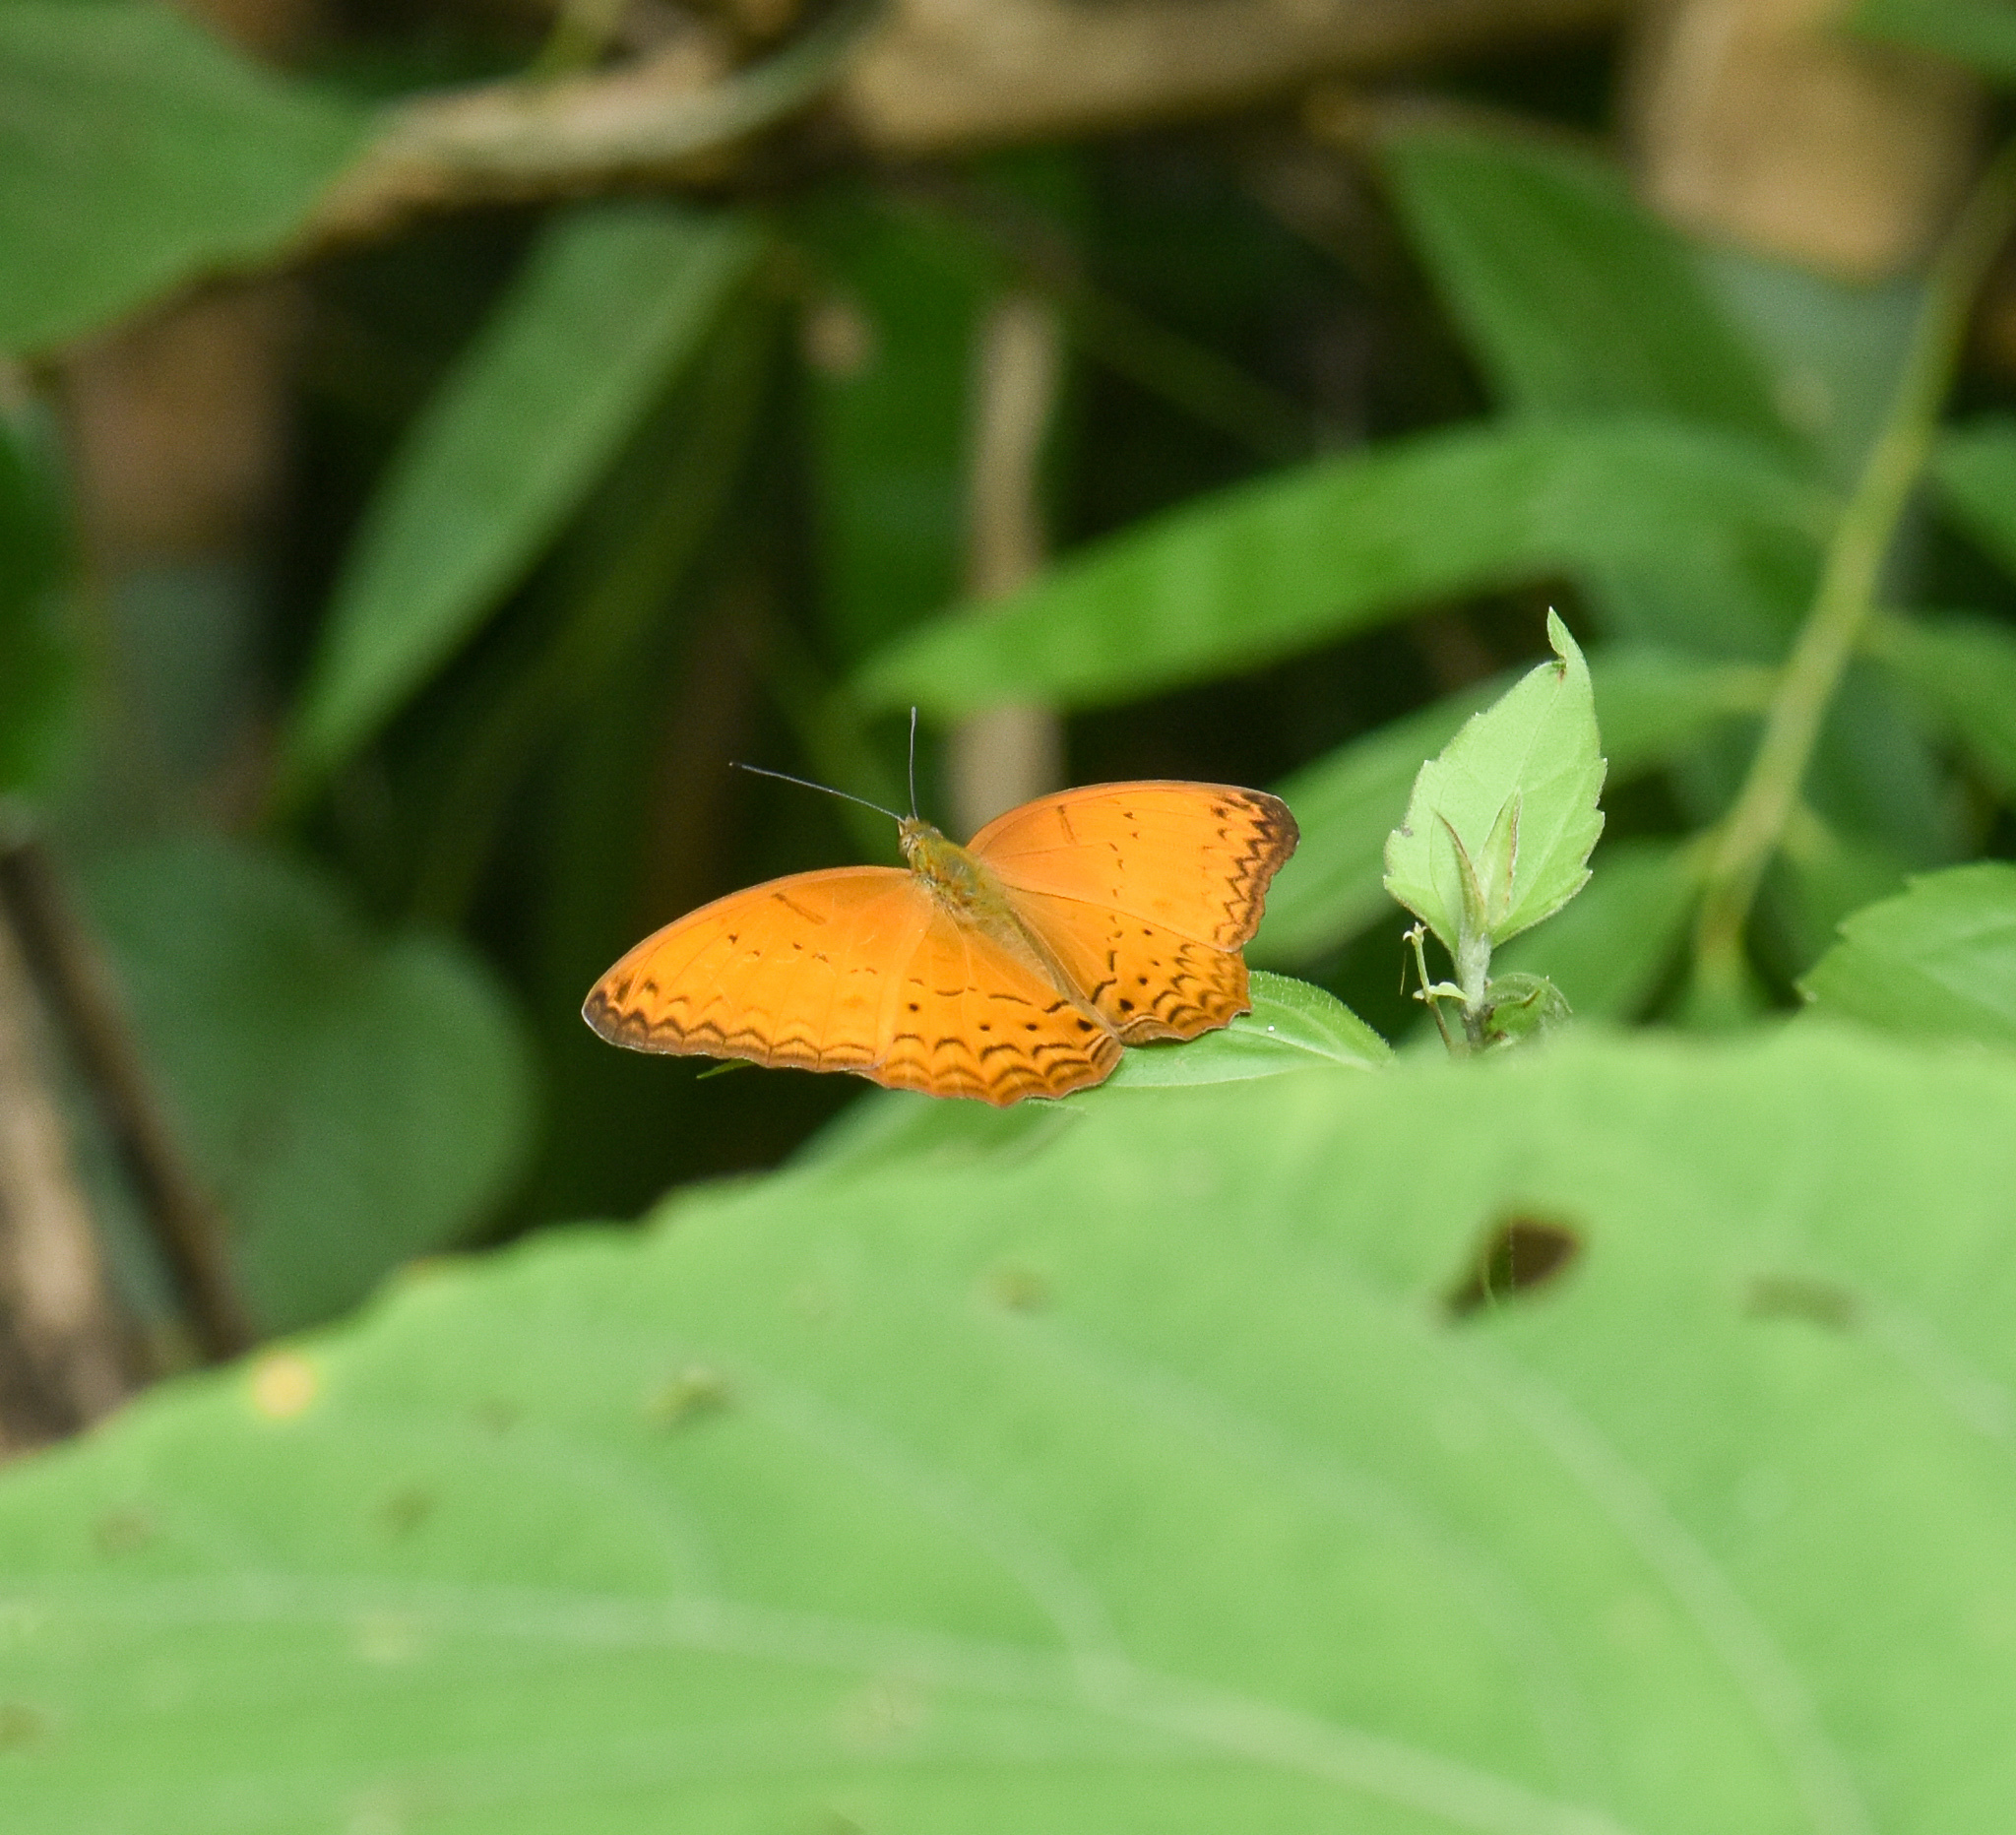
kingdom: Animalia
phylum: Arthropoda
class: Insecta
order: Lepidoptera
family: Nymphalidae
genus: Cirrochroa
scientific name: Cirrochroa tyche
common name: Common yeoman
